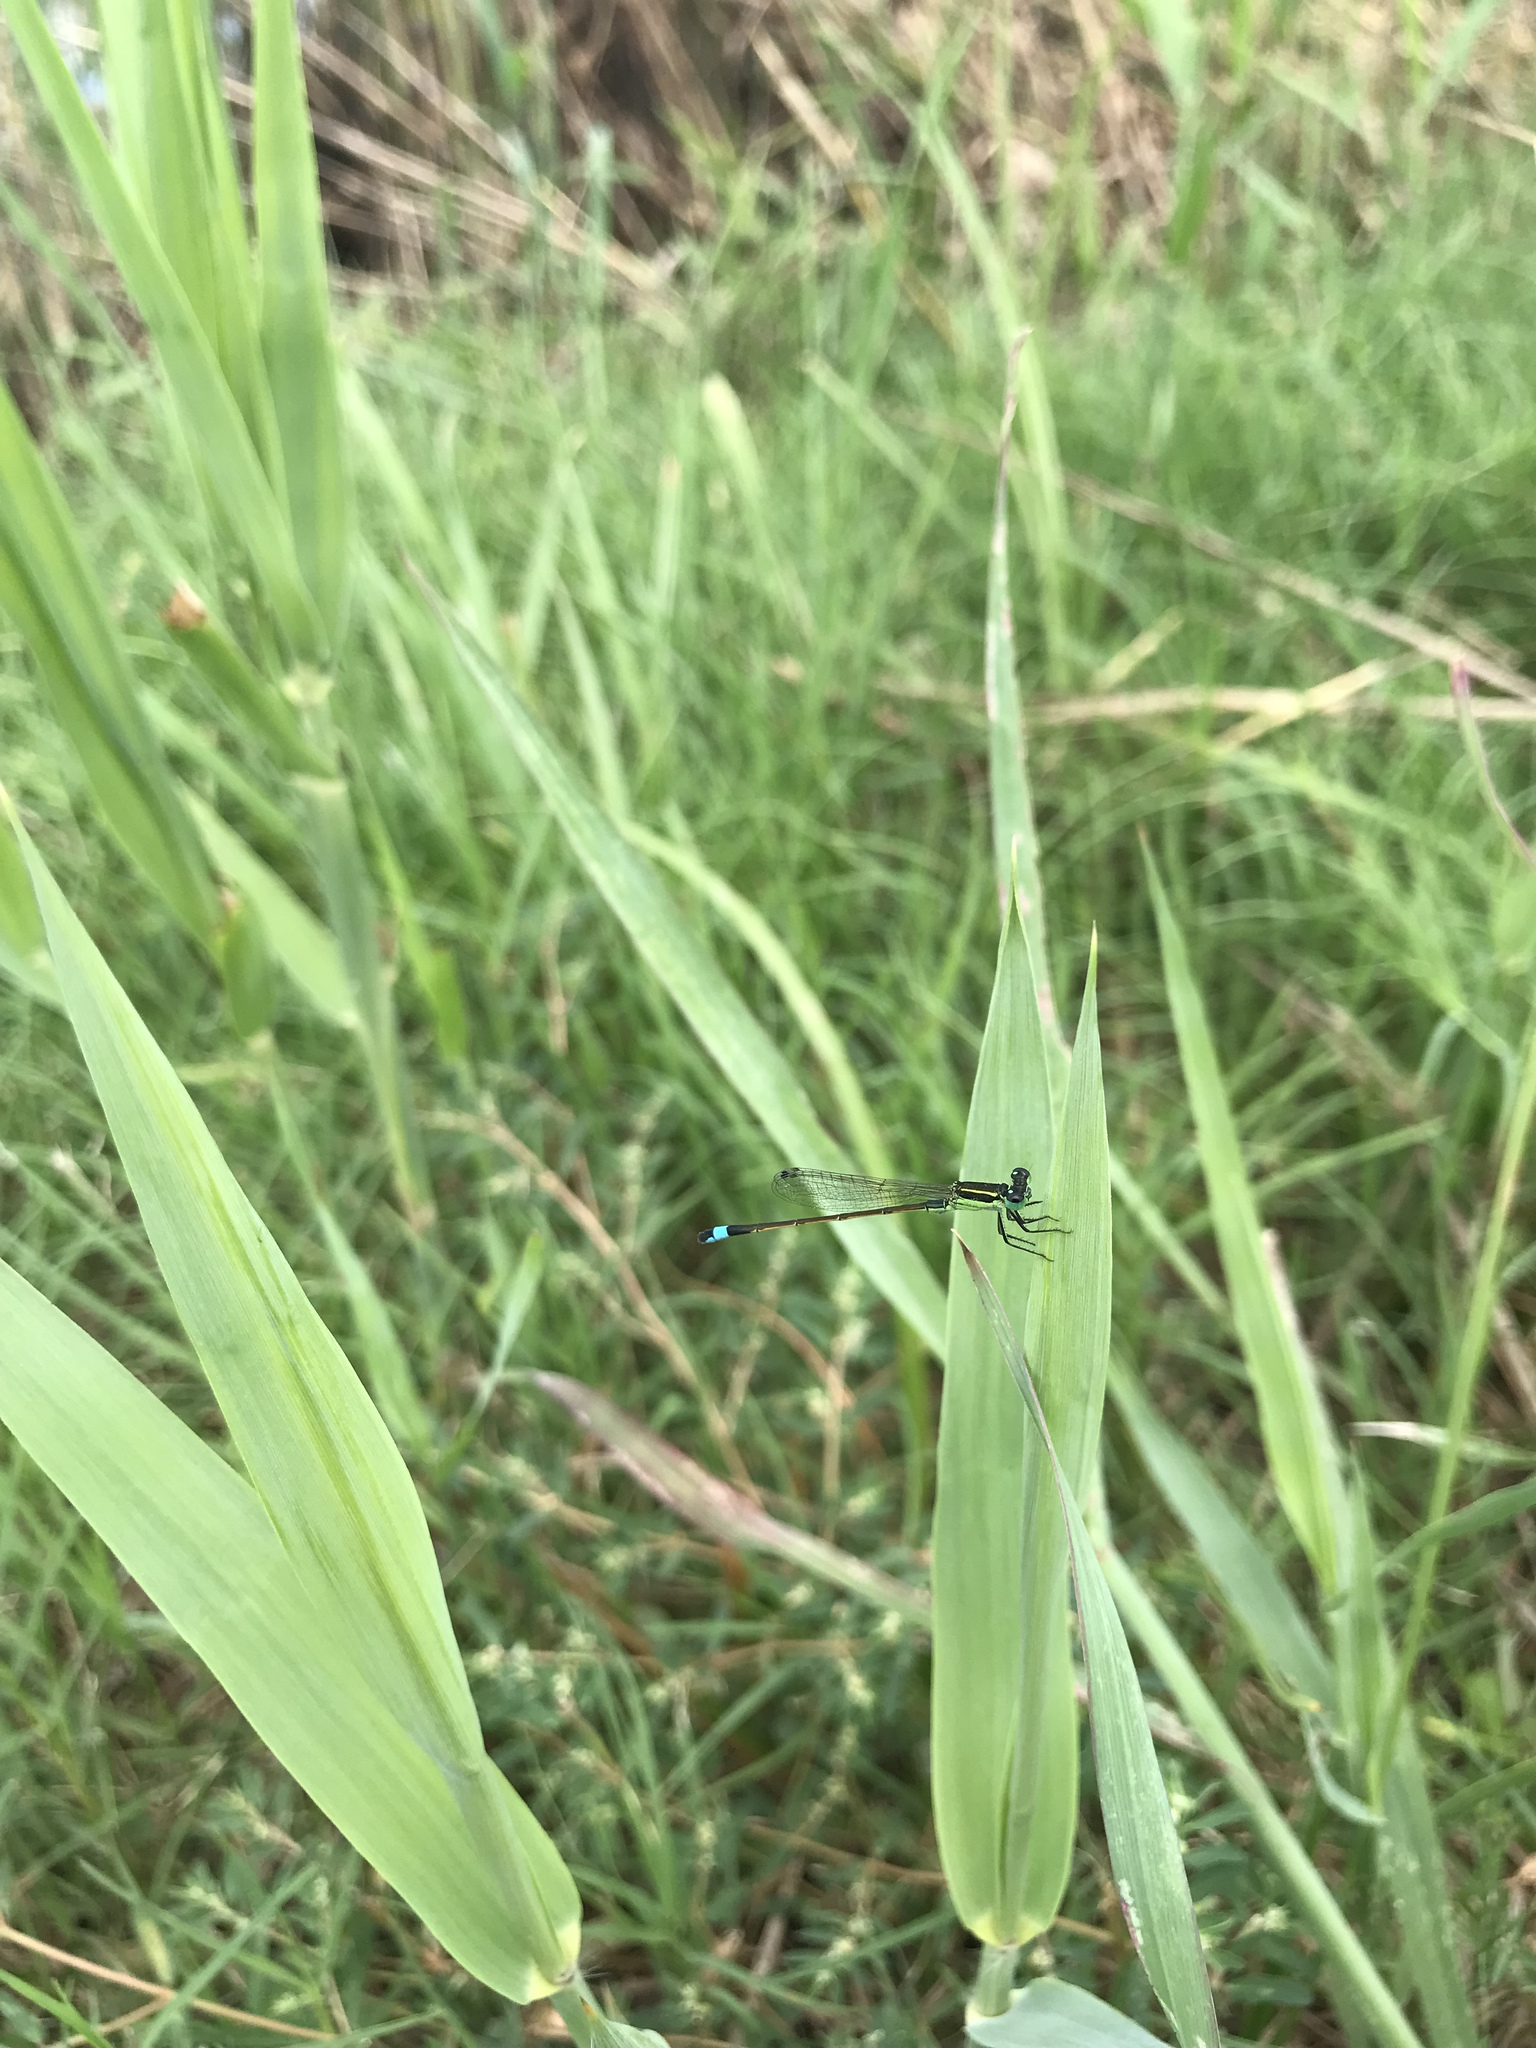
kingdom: Animalia
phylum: Arthropoda
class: Insecta
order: Odonata
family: Coenagrionidae
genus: Ischnura
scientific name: Ischnura ramburii
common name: Rambur's forktail
